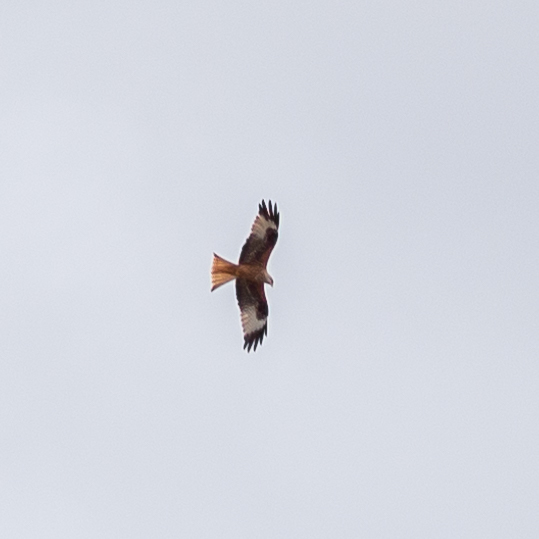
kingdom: Animalia
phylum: Chordata
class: Aves
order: Accipitriformes
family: Accipitridae
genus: Milvus
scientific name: Milvus milvus
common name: Red kite
